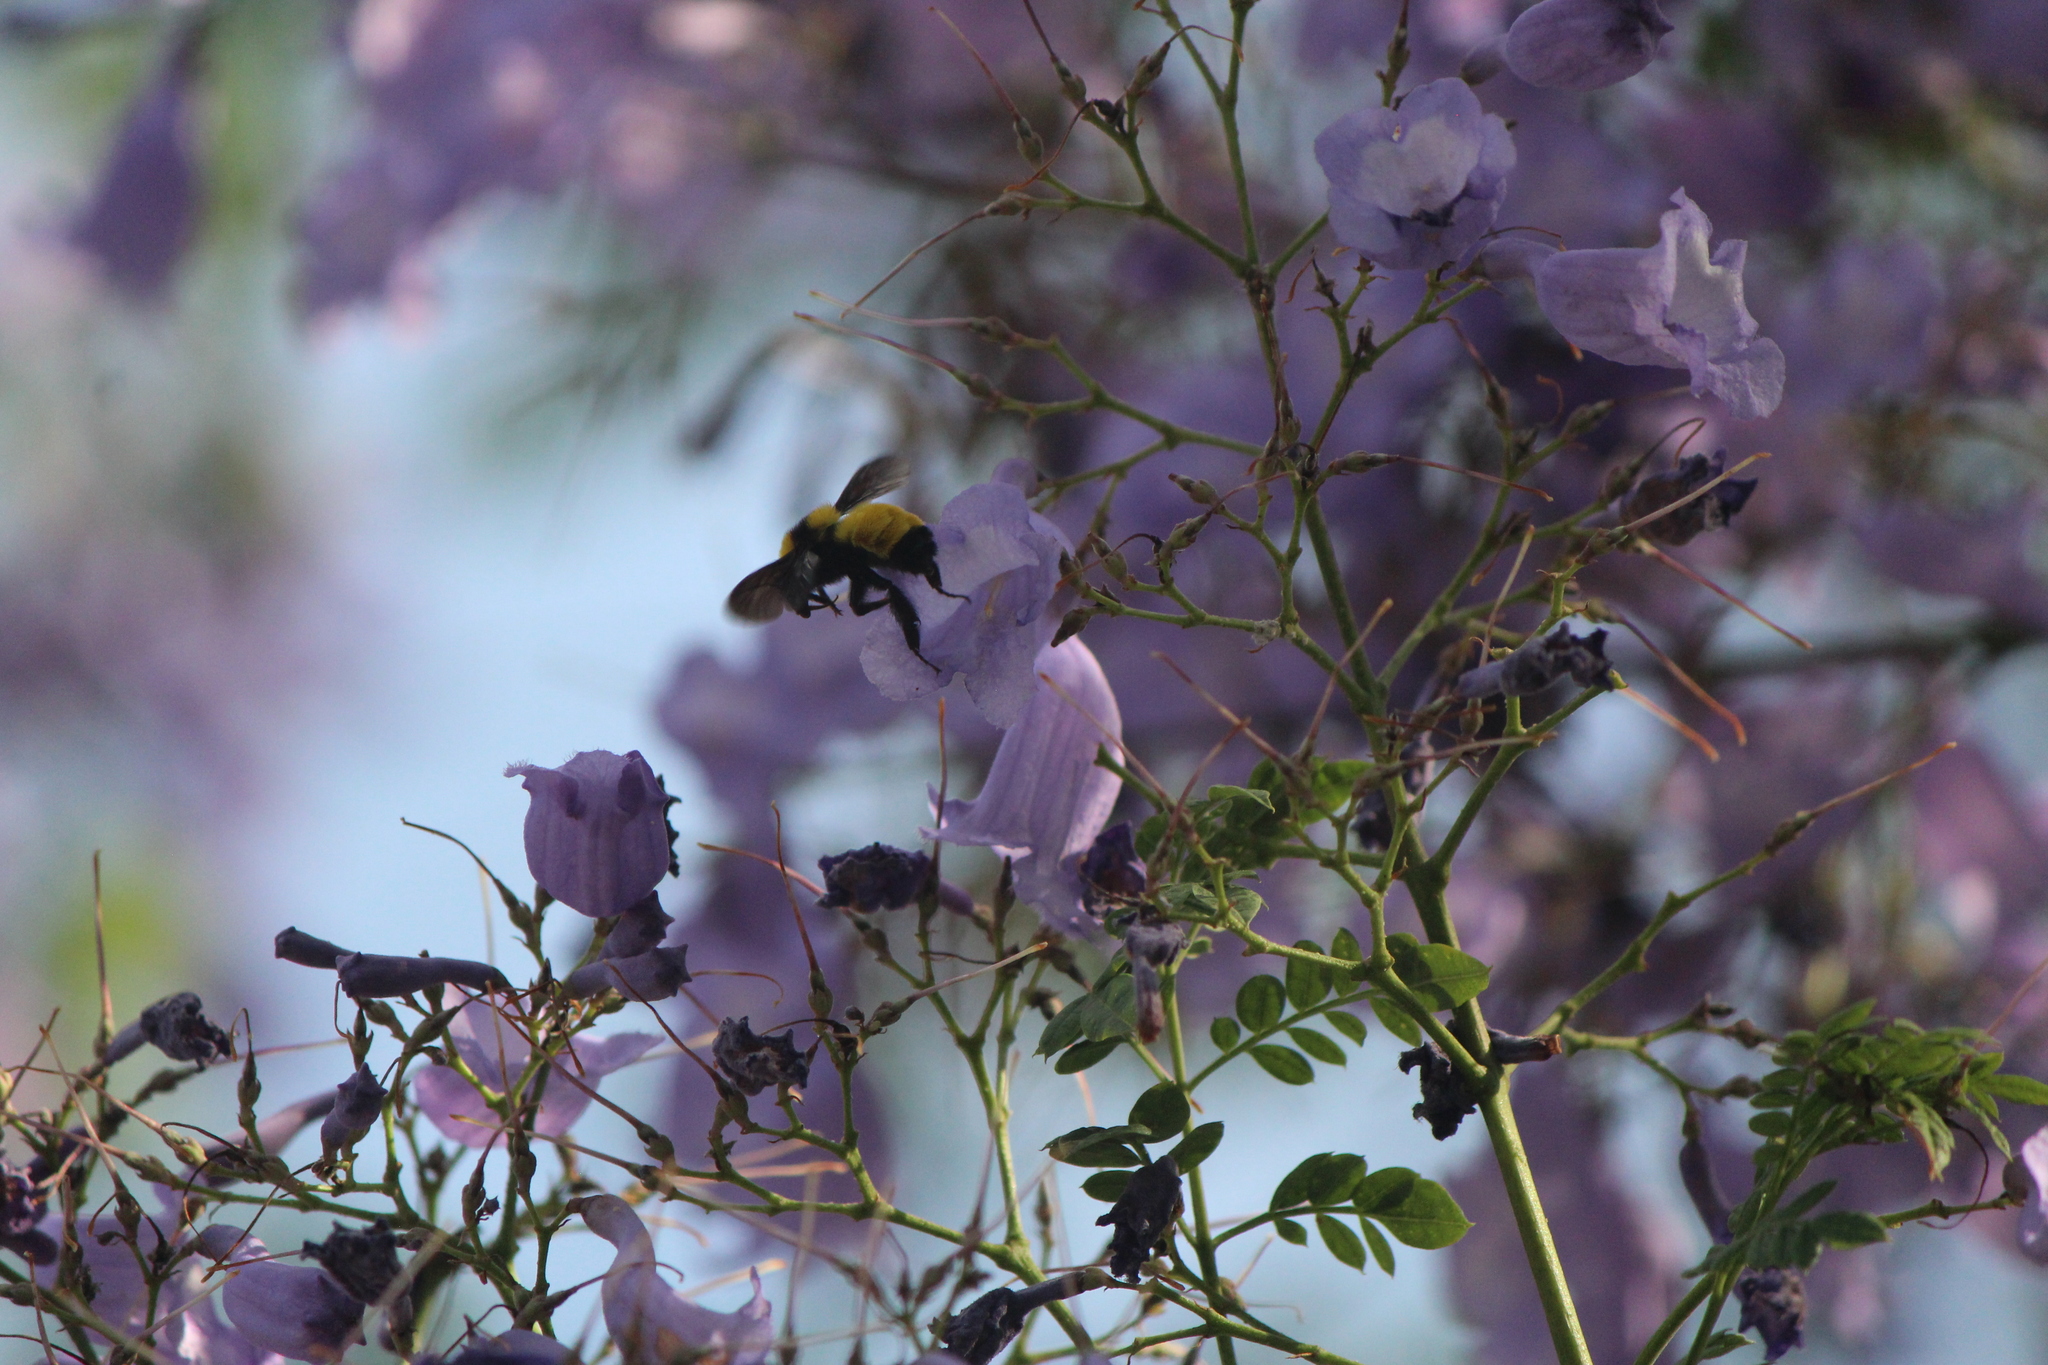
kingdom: Animalia
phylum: Arthropoda
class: Insecta
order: Hymenoptera
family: Apidae
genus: Bombus
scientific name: Bombus sonorus
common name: Sonoran bumble bee
